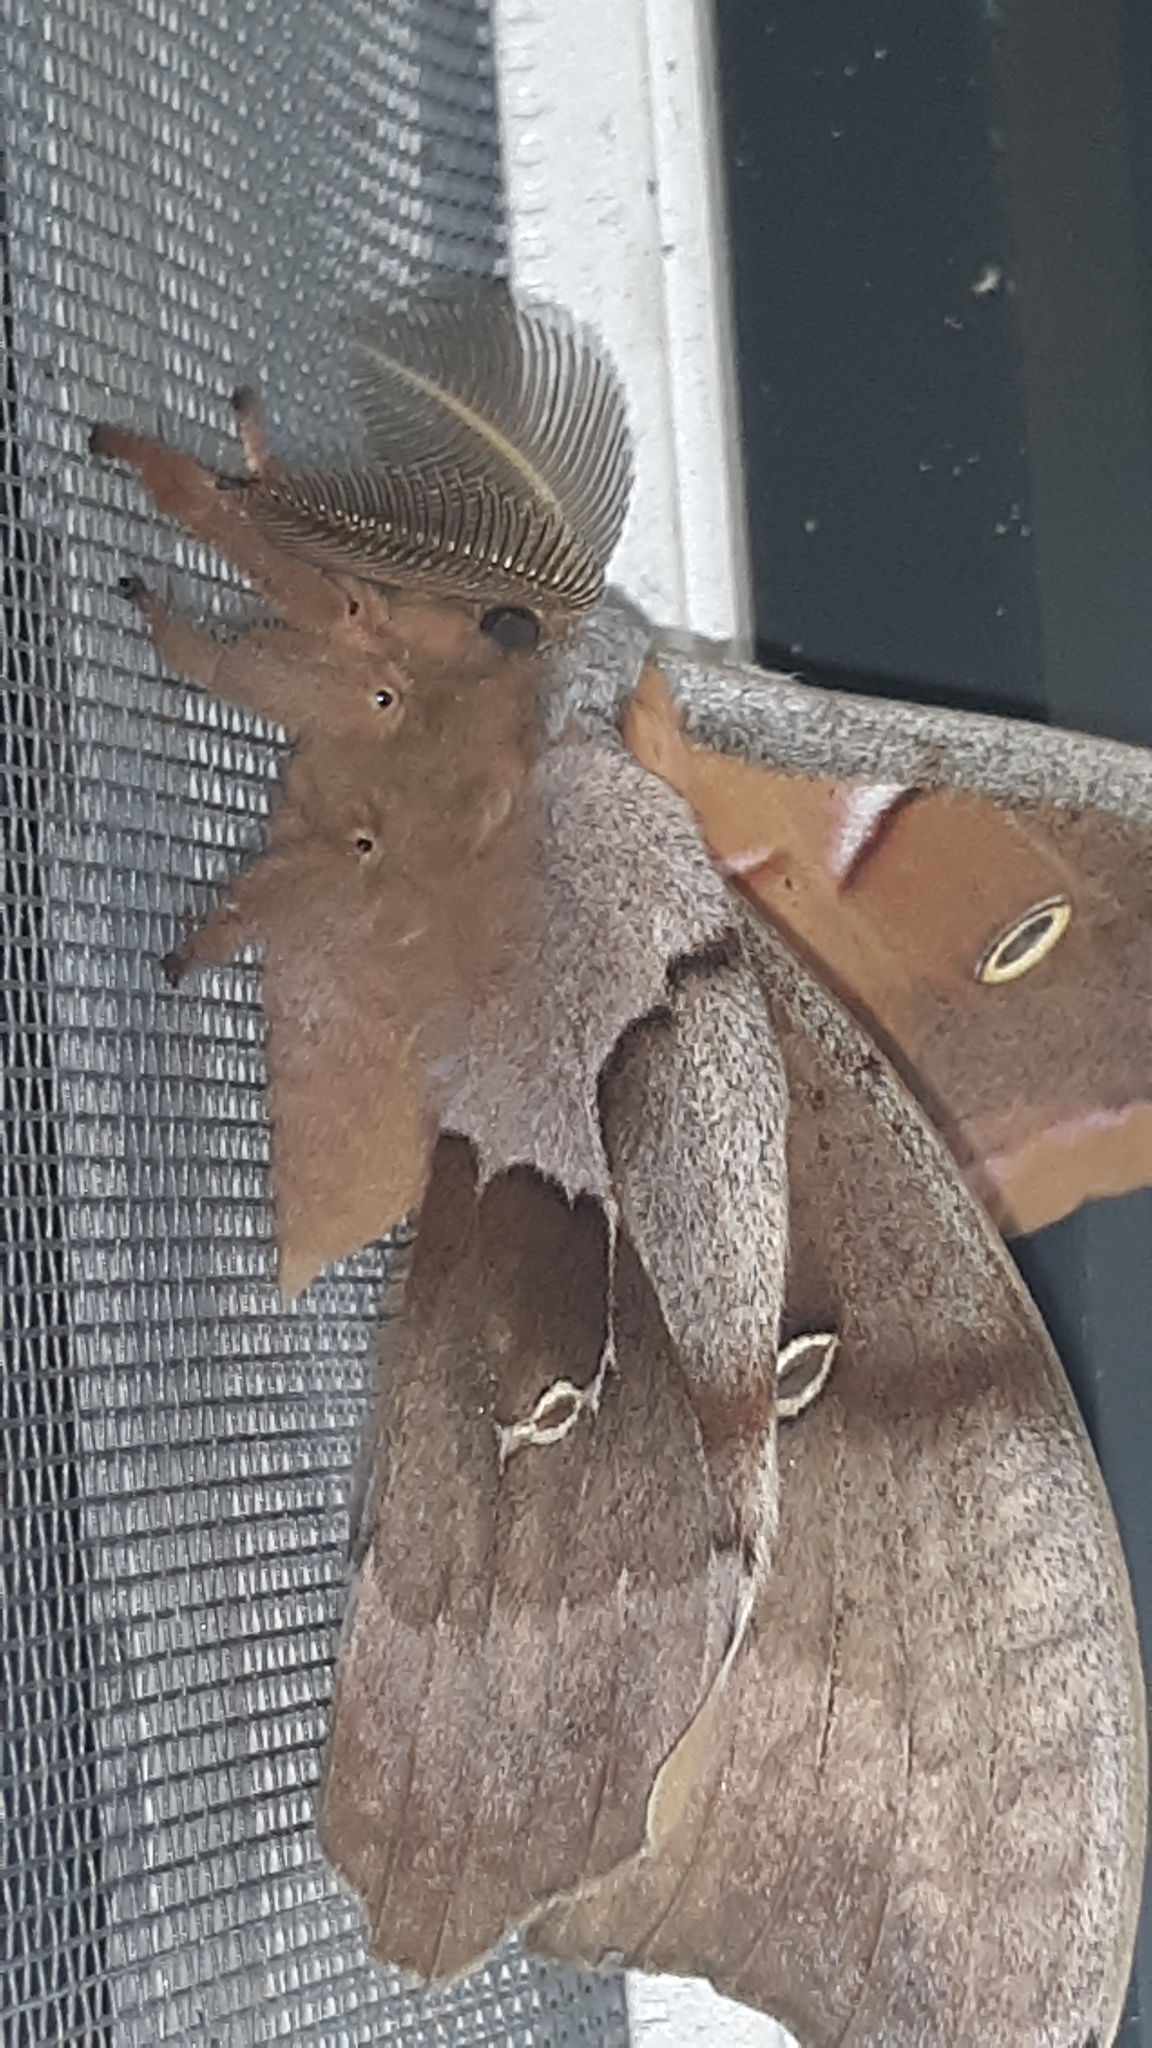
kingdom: Animalia
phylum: Arthropoda
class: Insecta
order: Lepidoptera
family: Saturniidae
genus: Antheraea
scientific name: Antheraea polyphemus
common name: Polyphemus moth
